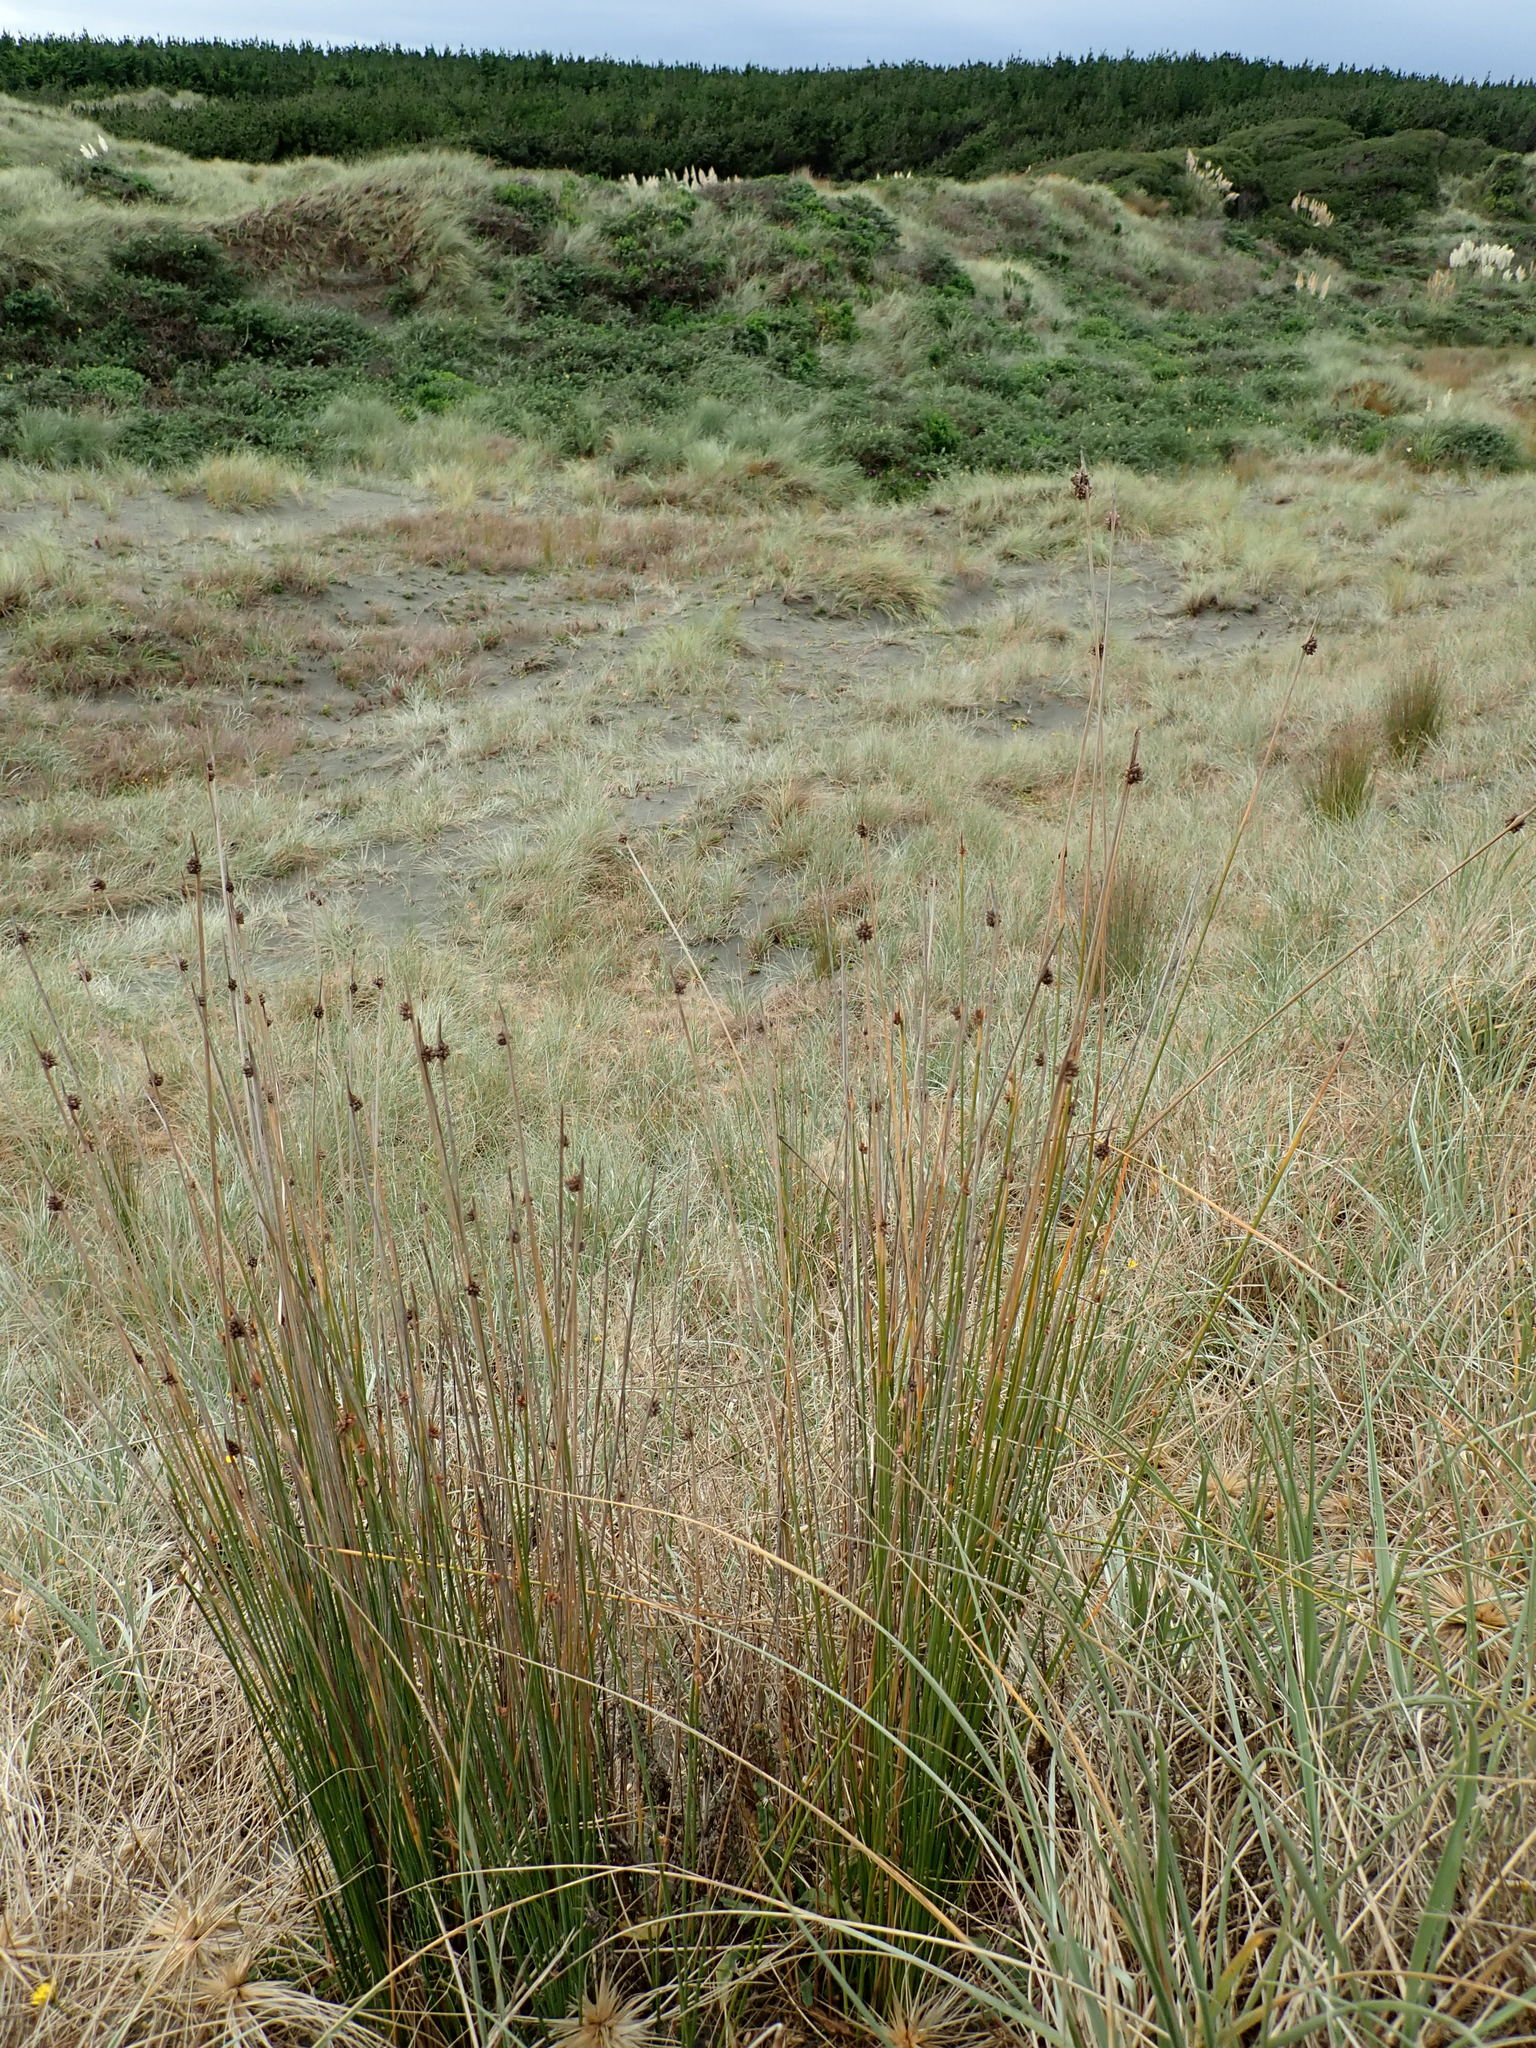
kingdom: Plantae
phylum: Tracheophyta
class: Liliopsida
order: Poales
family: Cyperaceae
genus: Ficinia
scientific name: Ficinia nodosa
